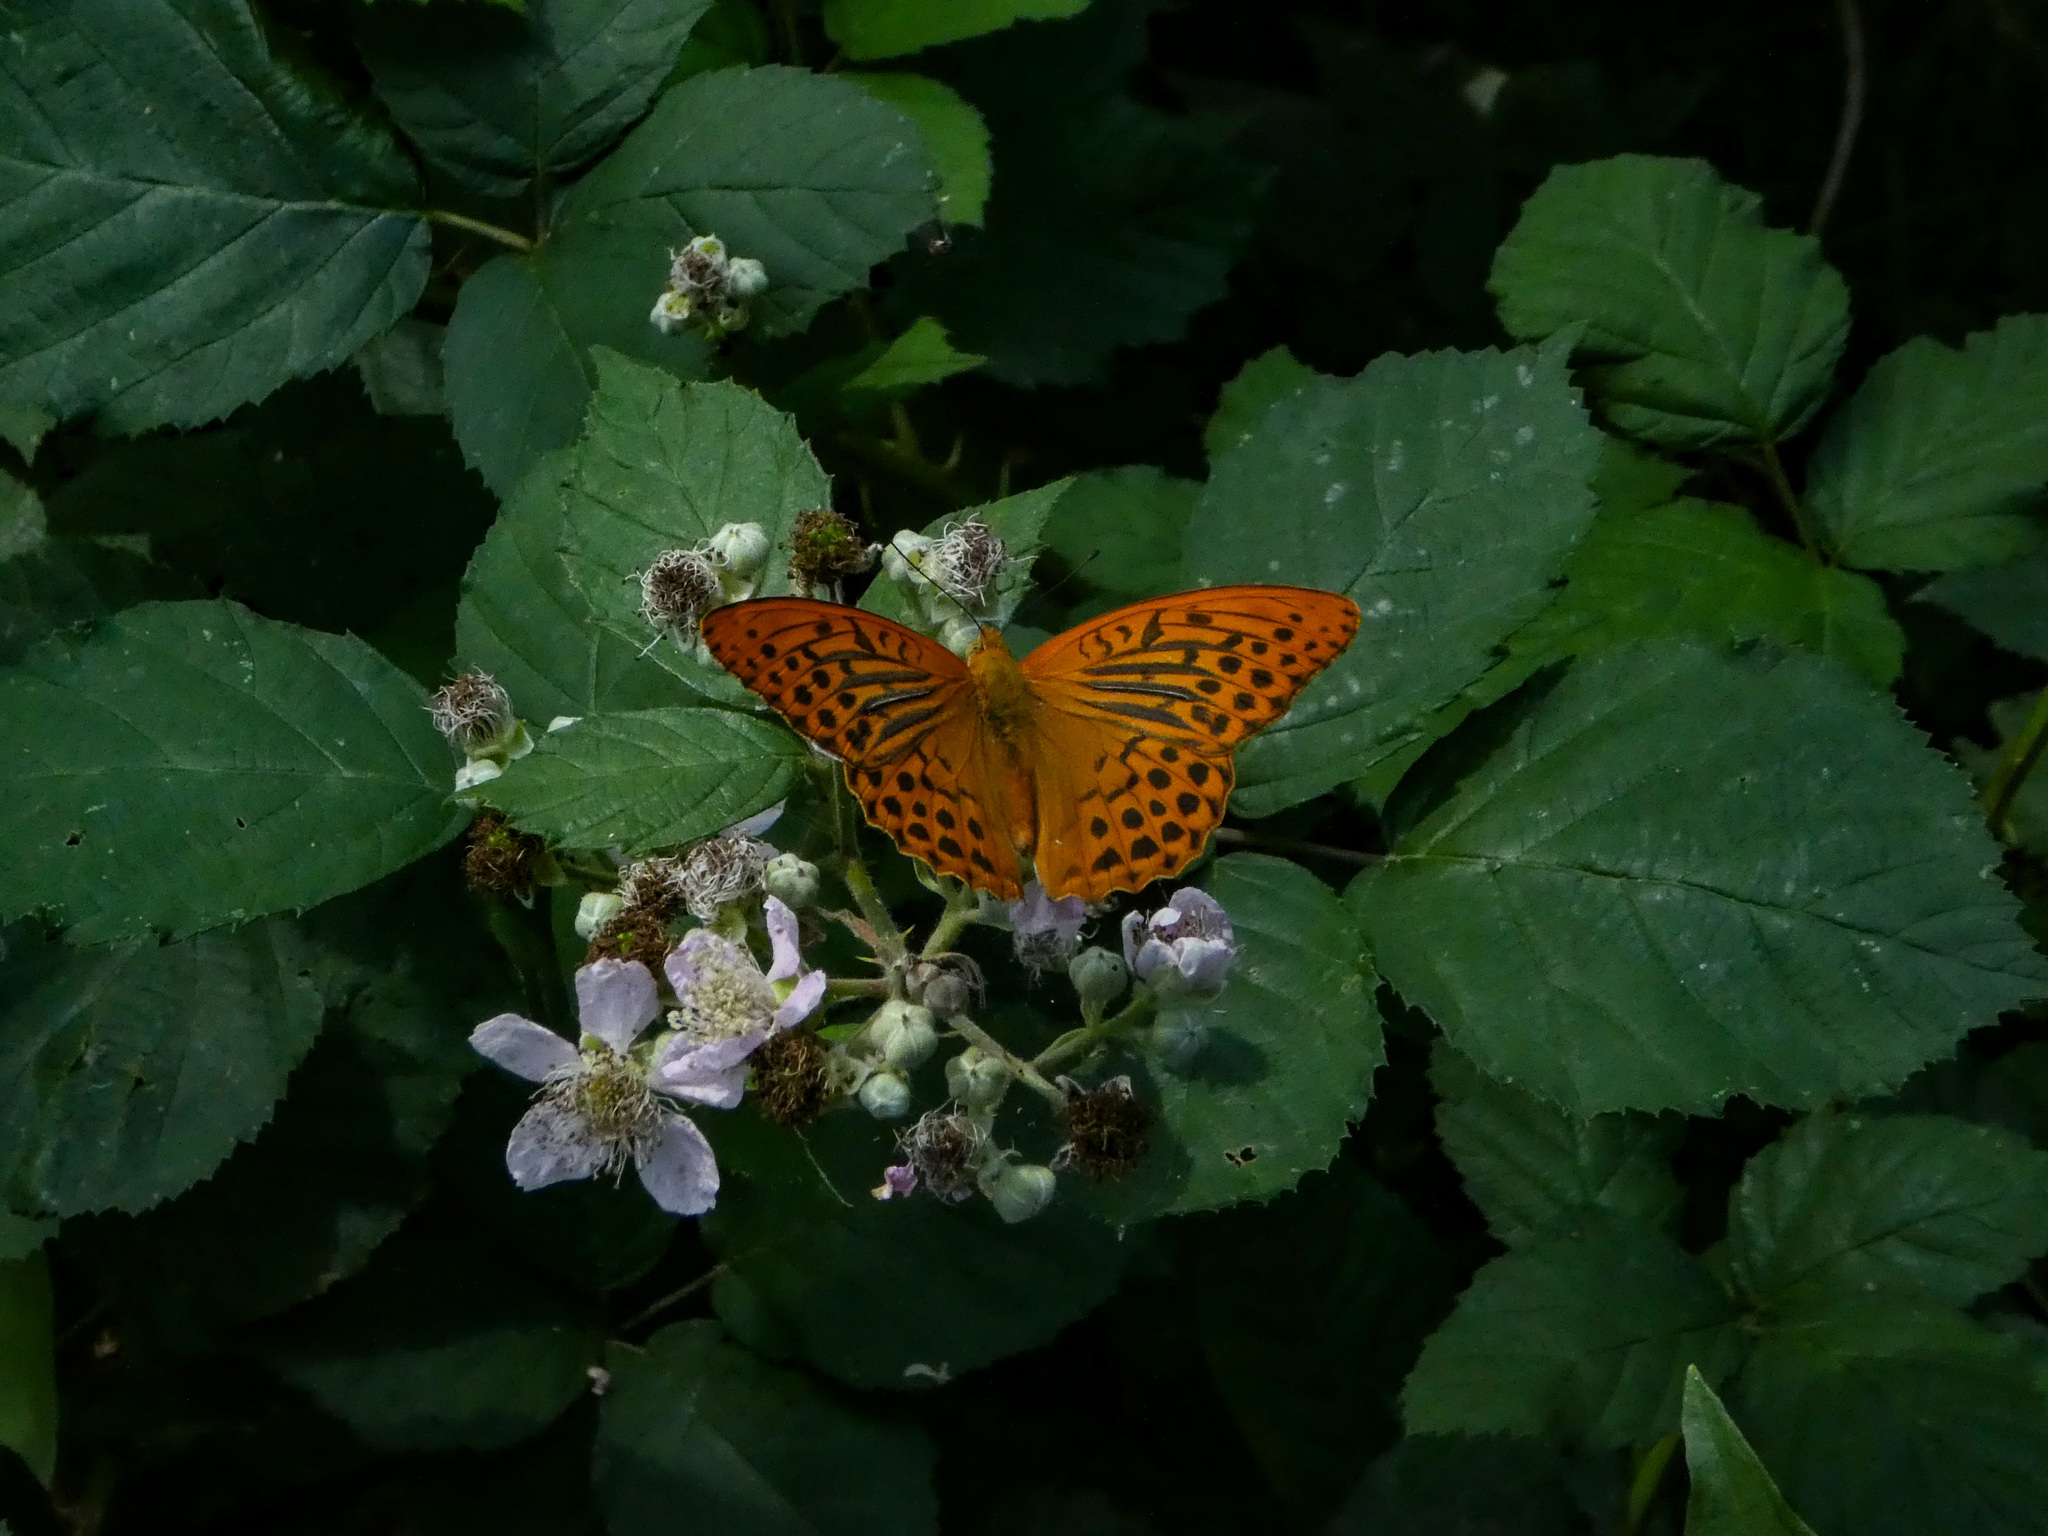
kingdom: Animalia
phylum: Arthropoda
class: Insecta
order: Lepidoptera
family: Nymphalidae
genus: Argynnis
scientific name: Argynnis paphia
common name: Silver-washed fritillary
